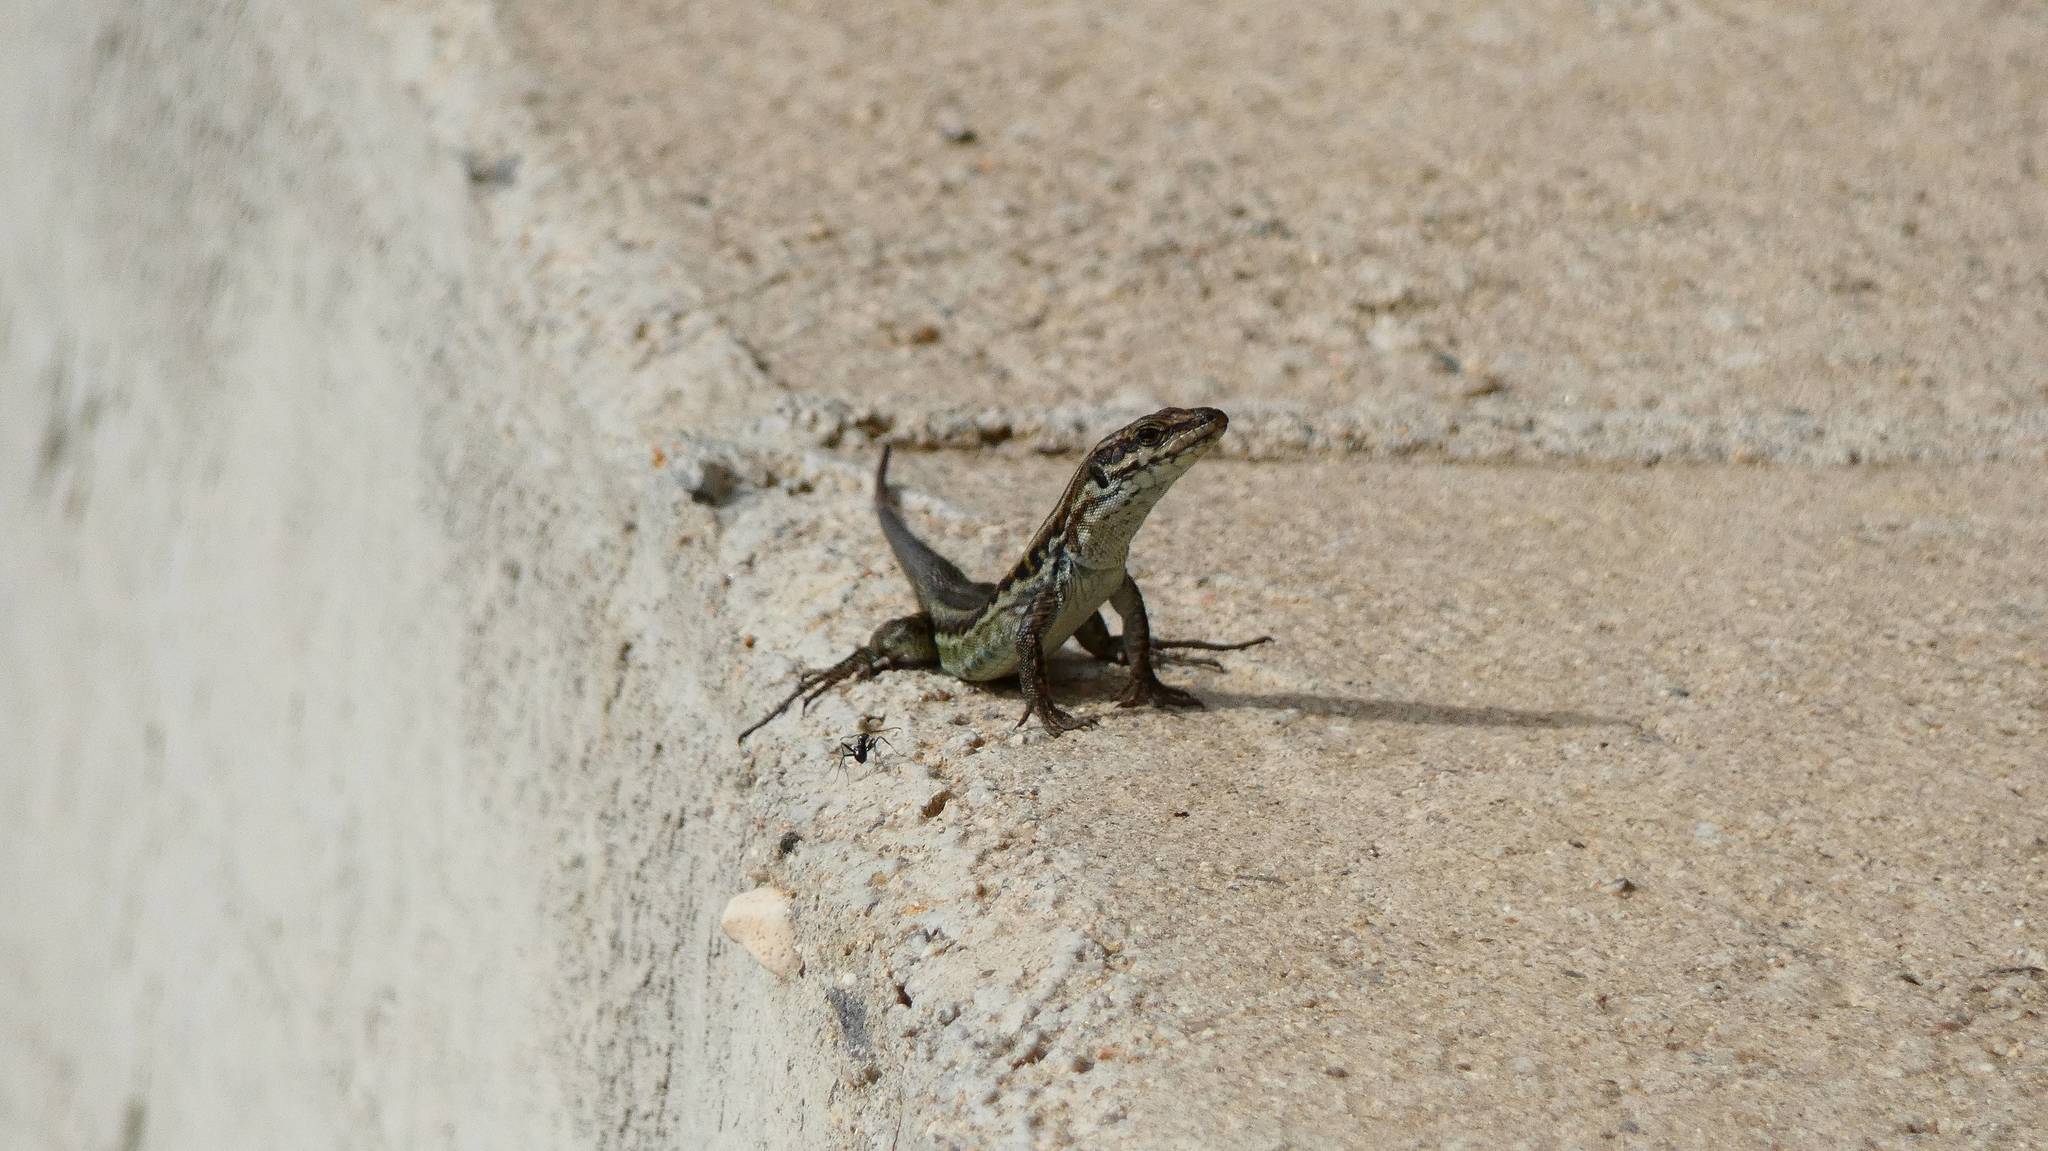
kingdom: Animalia
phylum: Chordata
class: Squamata
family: Lacertidae
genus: Podarcis
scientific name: Podarcis tiliguerta
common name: Tyrrhenian wall lizard
